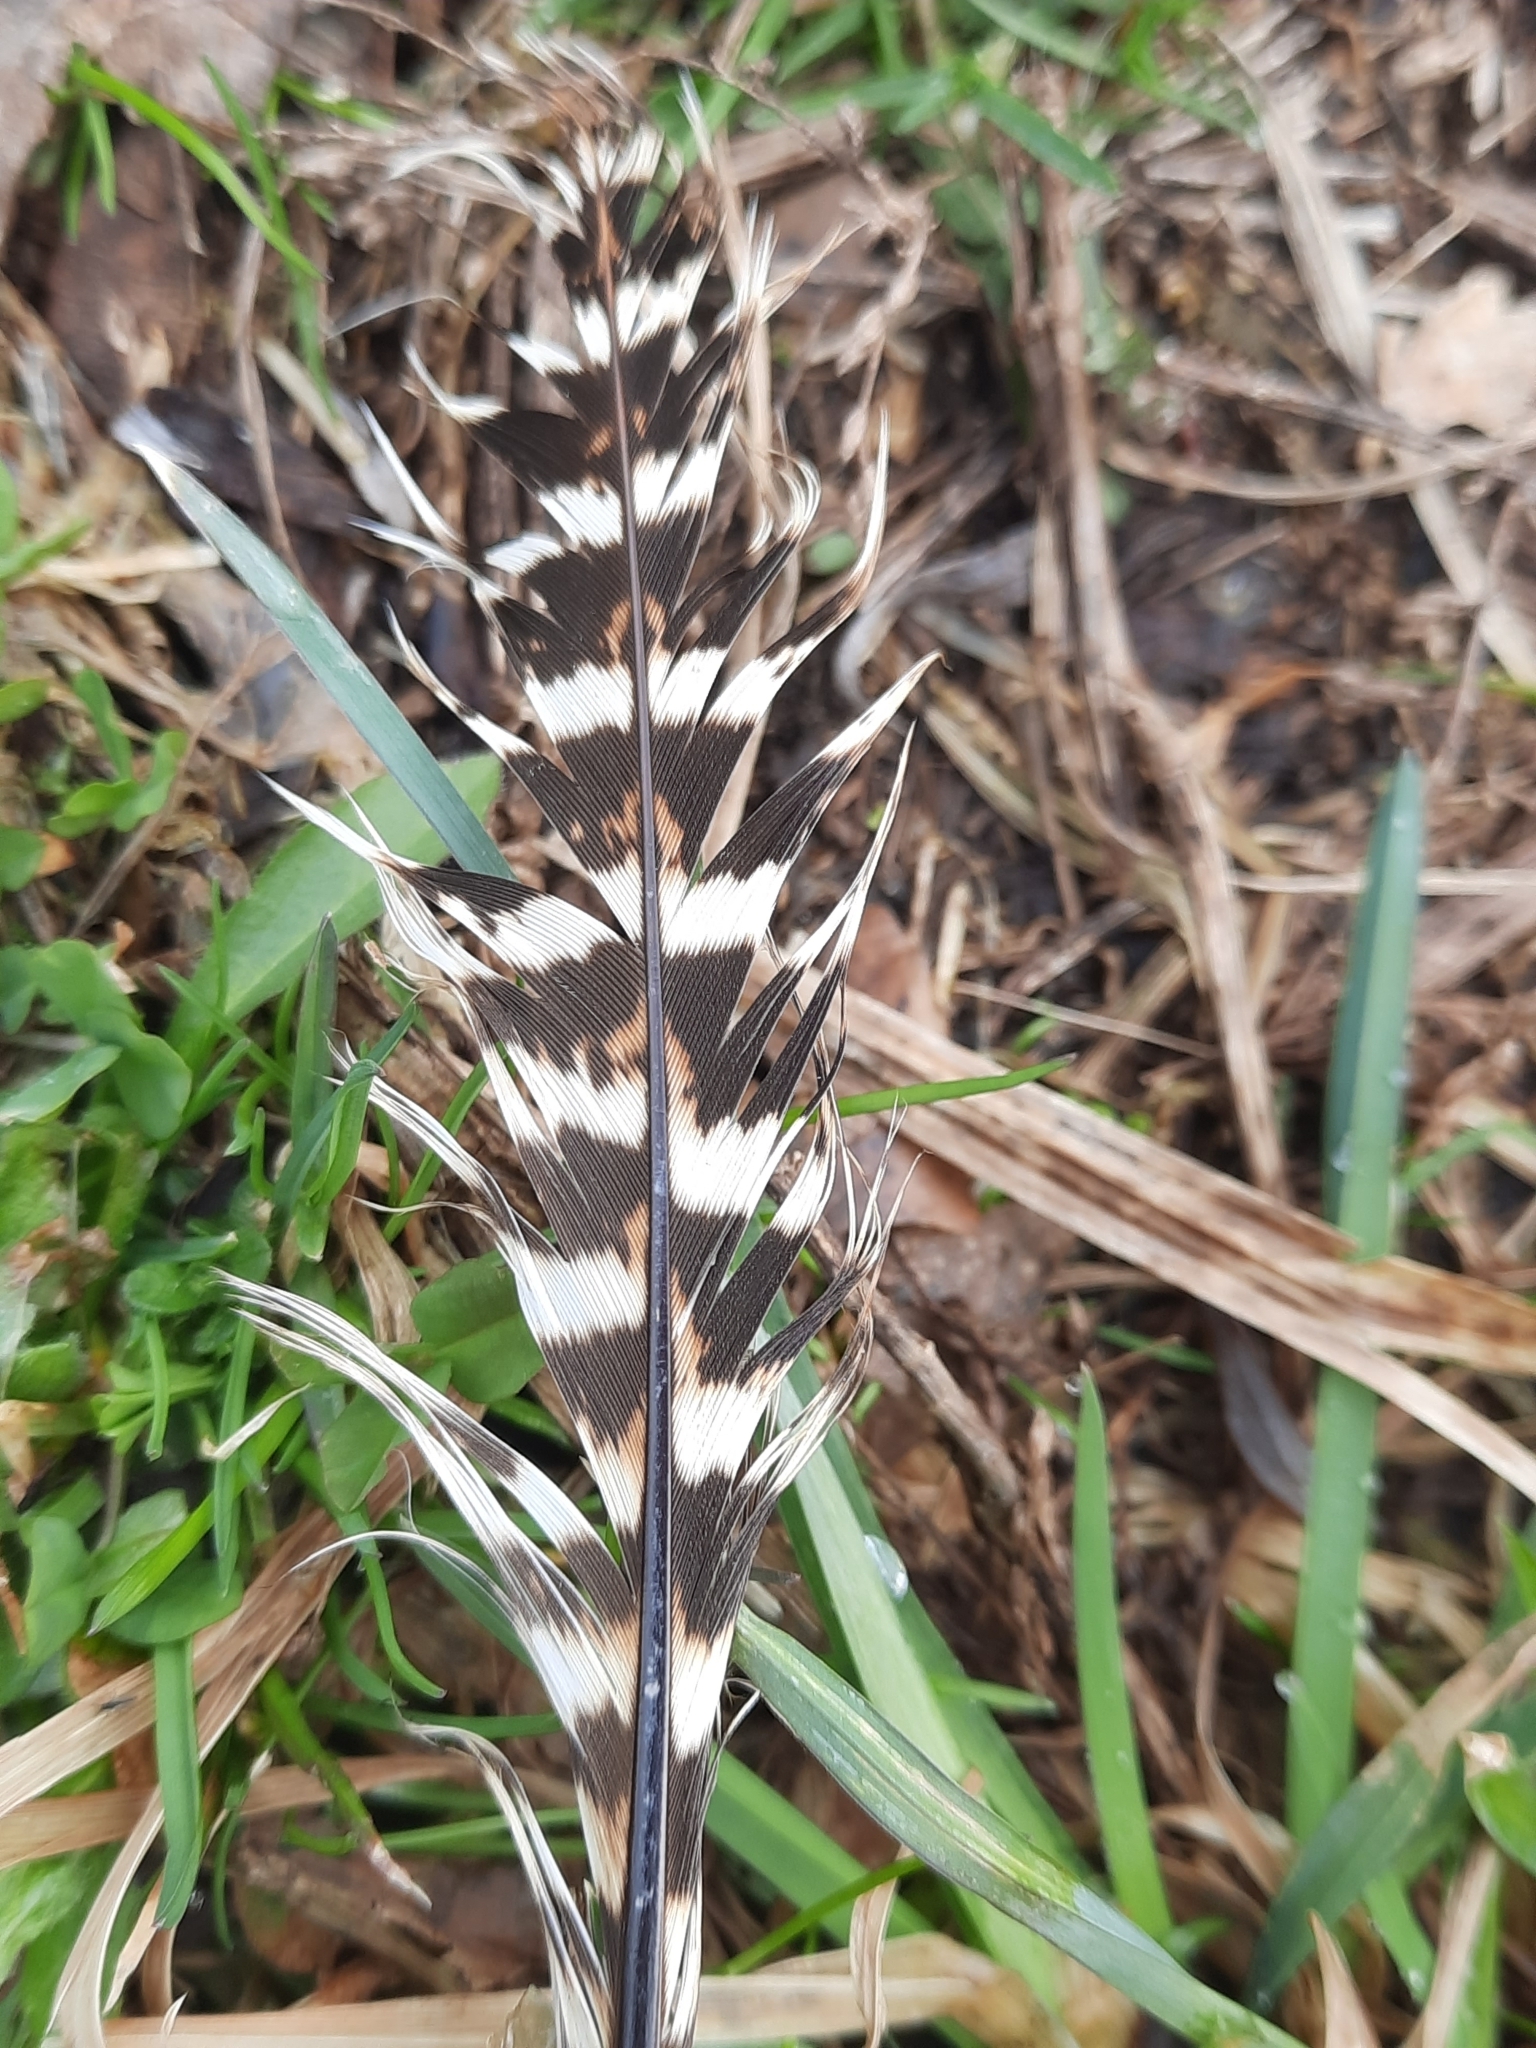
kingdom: Animalia
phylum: Chordata
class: Aves
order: Galliformes
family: Phasianidae
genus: Phasianus
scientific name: Phasianus colchicus
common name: Common pheasant
